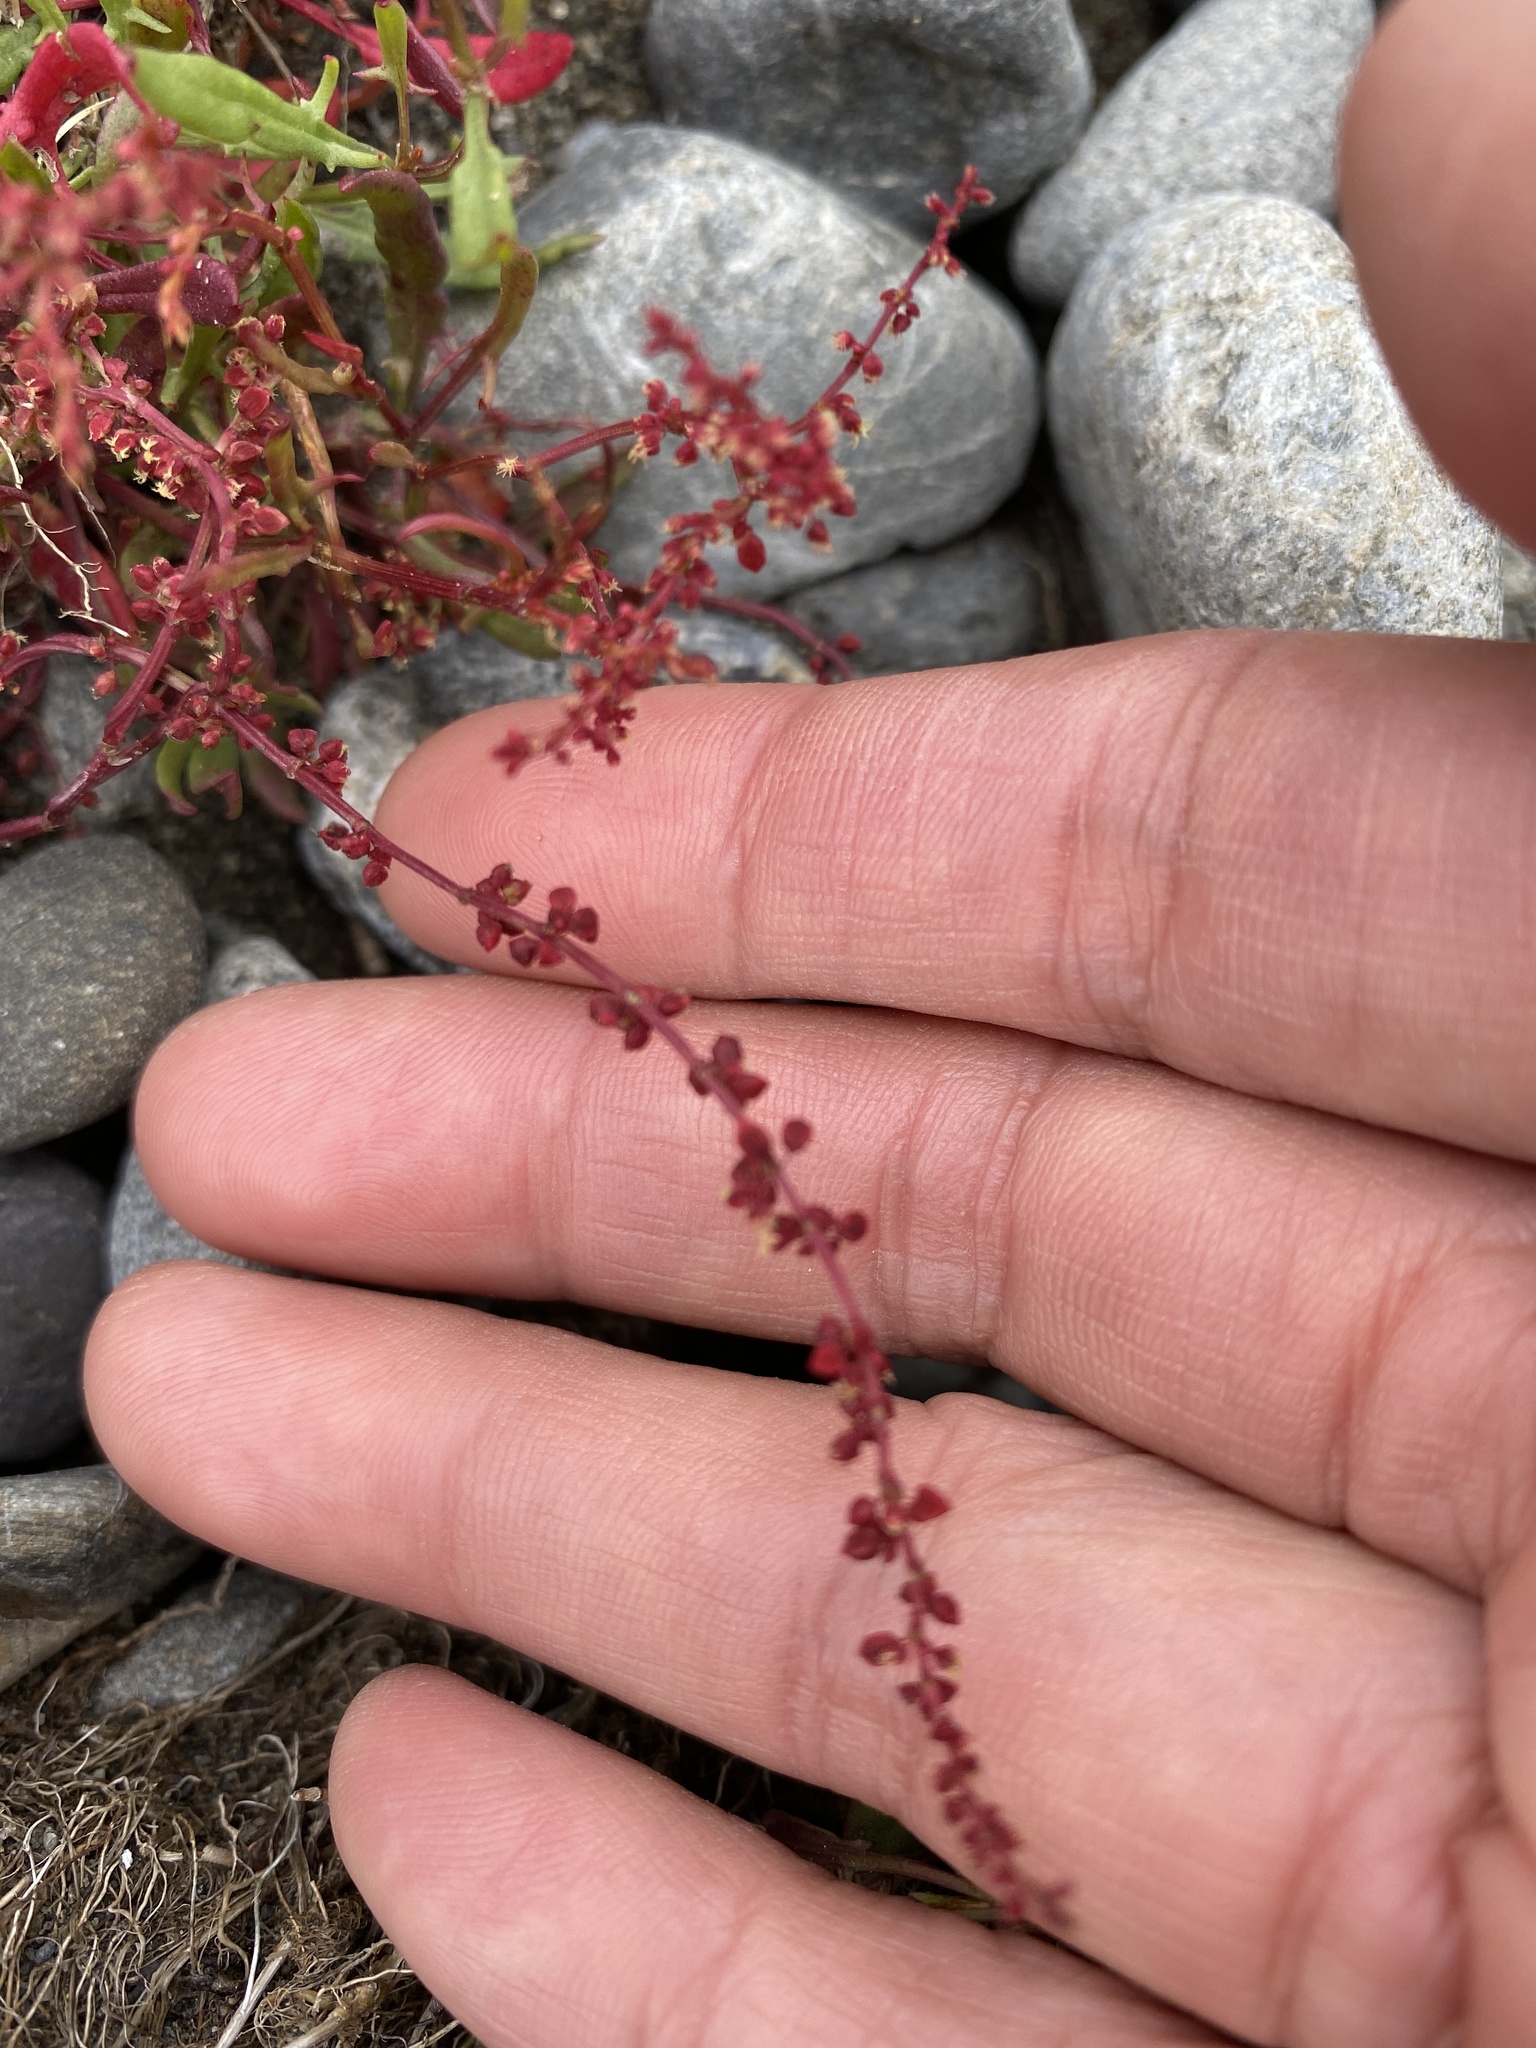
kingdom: Plantae
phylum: Tracheophyta
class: Magnoliopsida
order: Caryophyllales
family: Polygonaceae
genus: Rumex
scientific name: Rumex acetosella
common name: Common sheep sorrel
